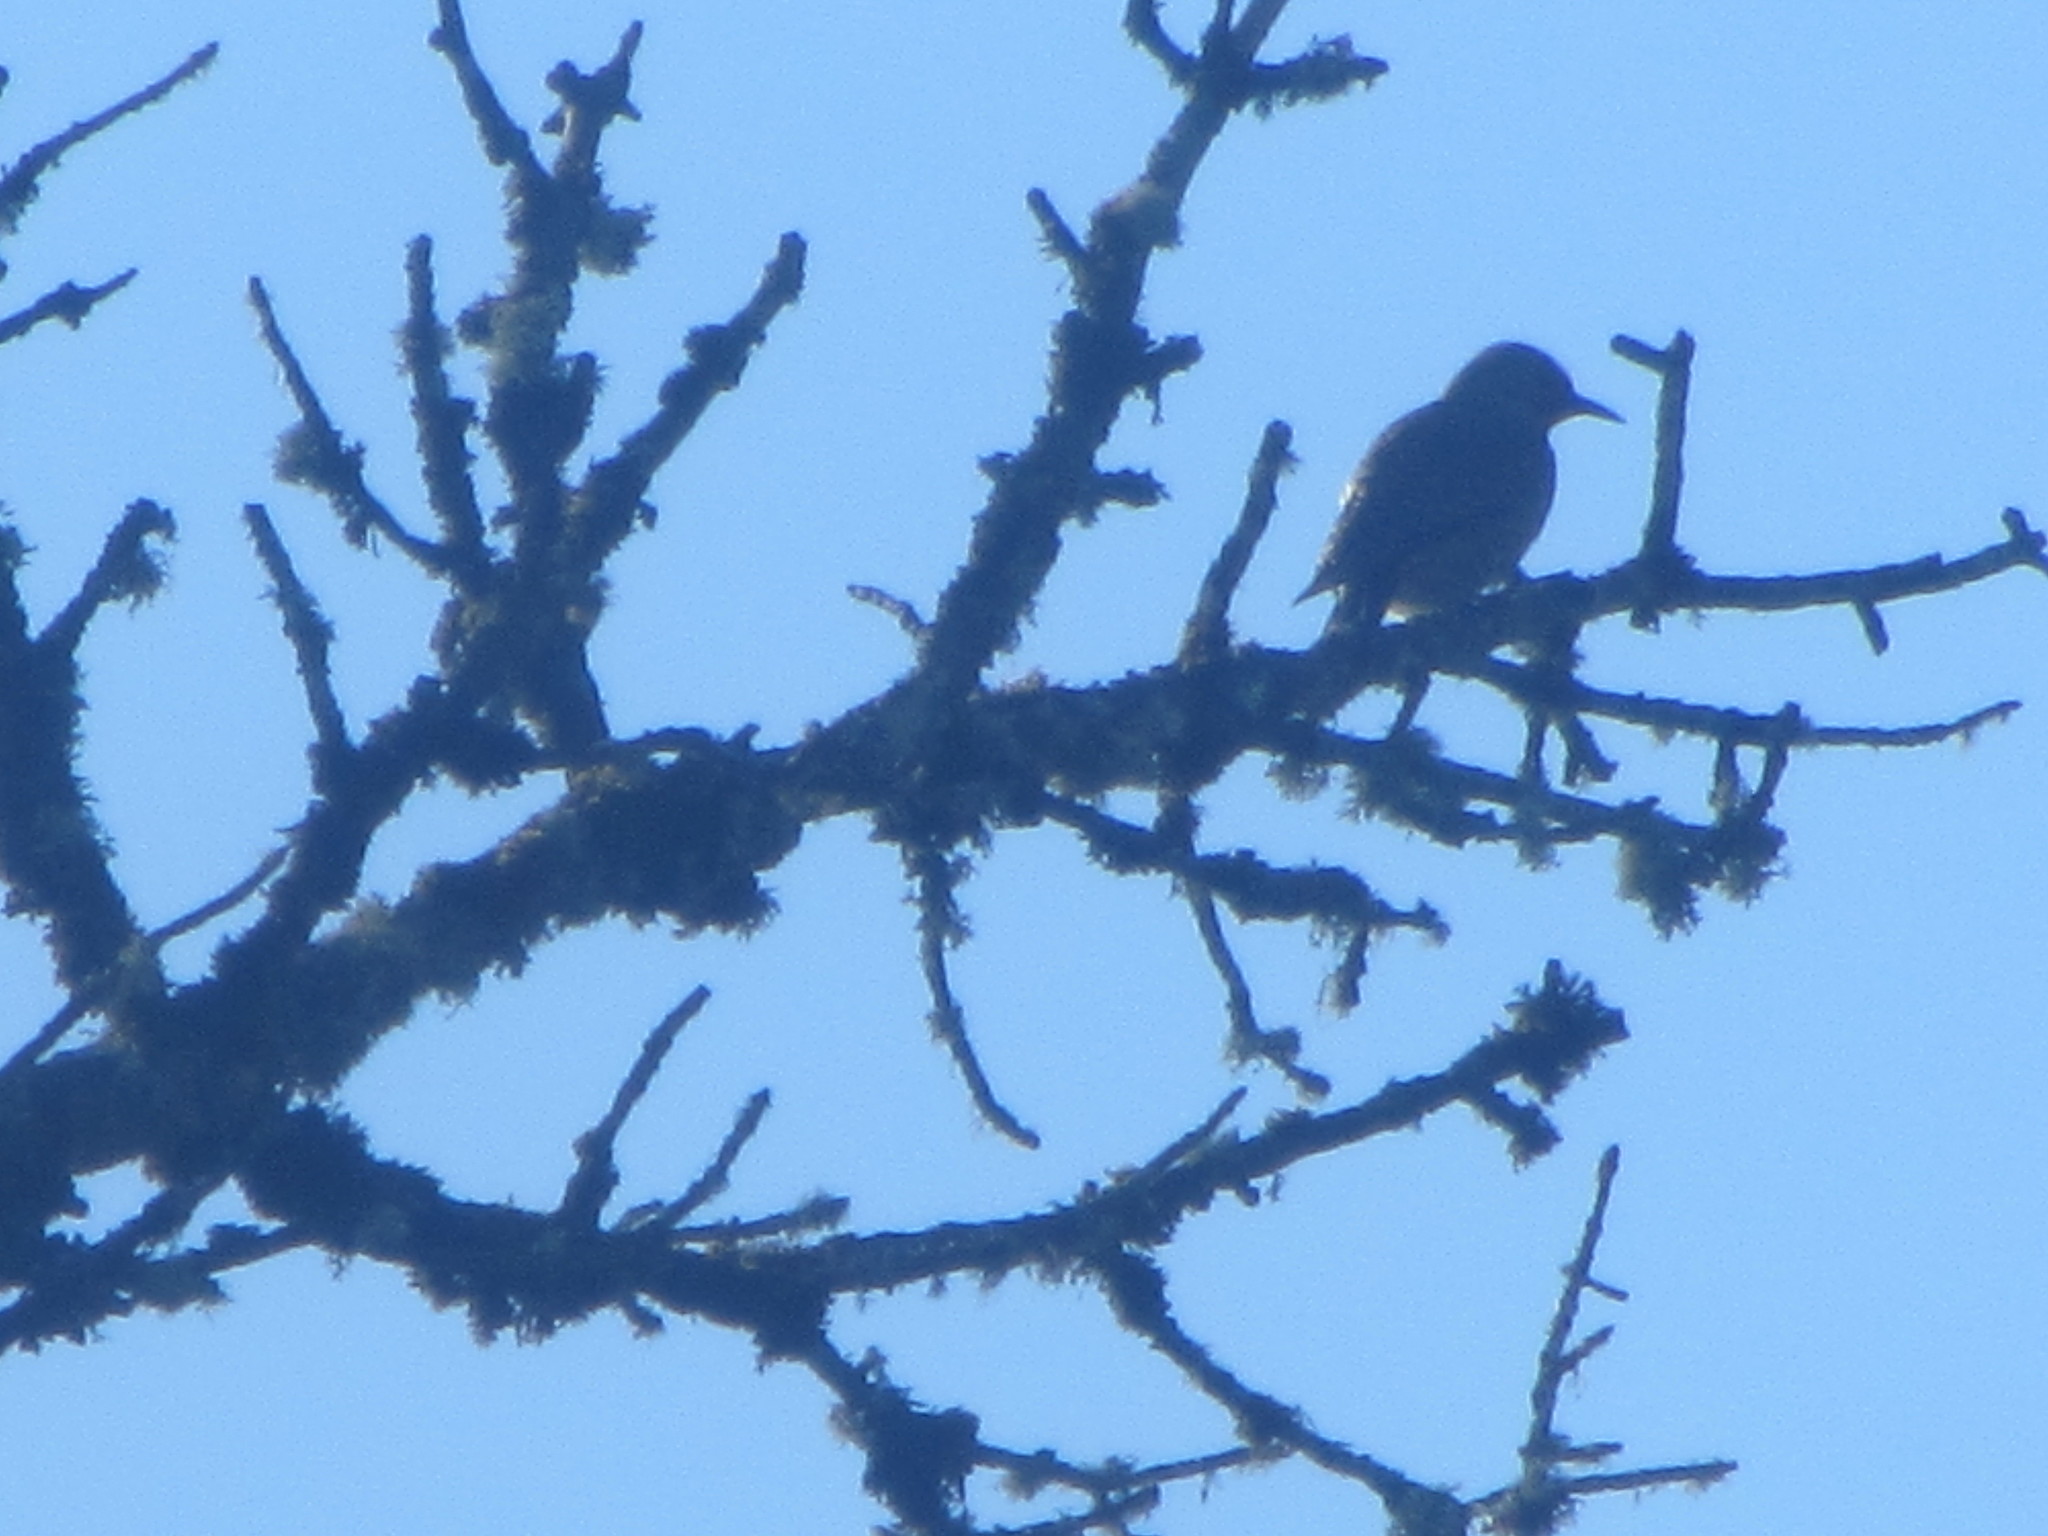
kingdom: Animalia
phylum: Chordata
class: Aves
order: Piciformes
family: Picidae
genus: Colaptes
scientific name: Colaptes auratus
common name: Northern flicker
